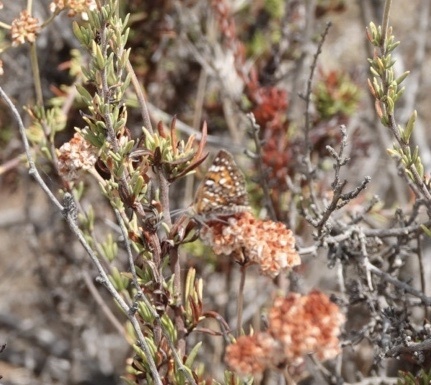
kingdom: Animalia
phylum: Arthropoda
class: Insecta
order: Lepidoptera
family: Riodinidae
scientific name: Riodinidae
